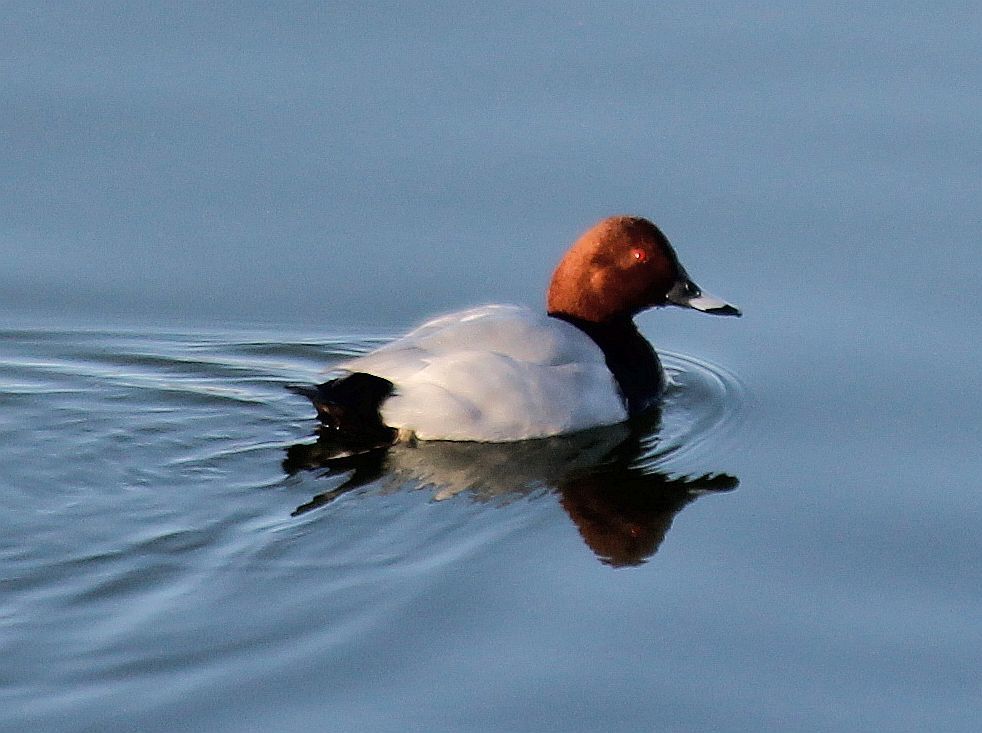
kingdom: Animalia
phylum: Chordata
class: Aves
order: Anseriformes
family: Anatidae
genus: Aythya
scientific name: Aythya ferina
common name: Common pochard
